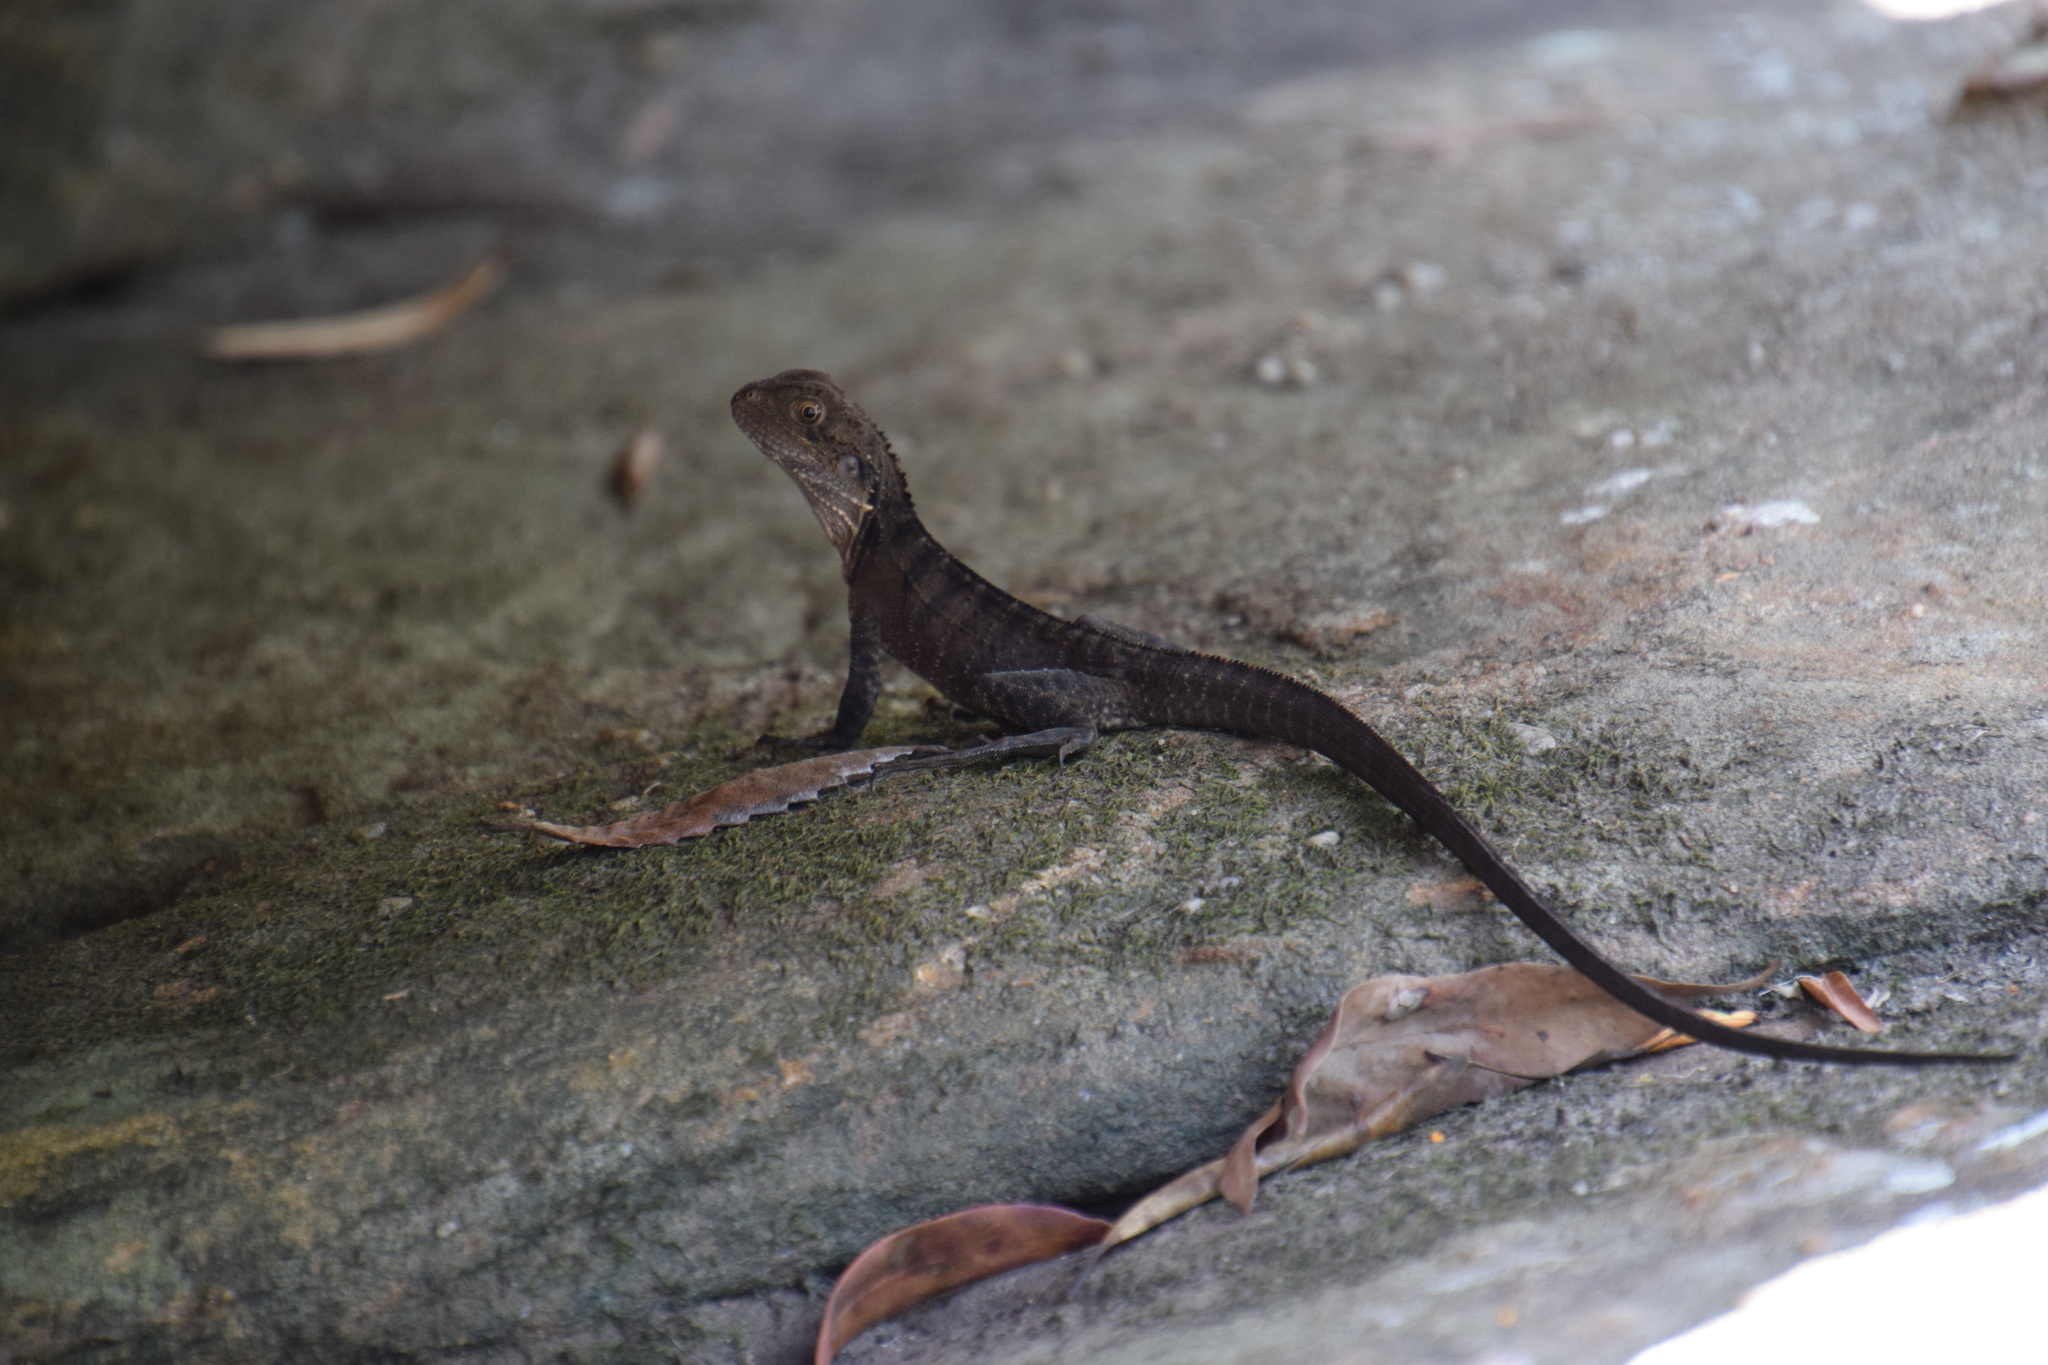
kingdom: Animalia
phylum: Chordata
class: Squamata
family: Agamidae
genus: Intellagama
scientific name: Intellagama lesueurii
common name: Eastern water dragon
